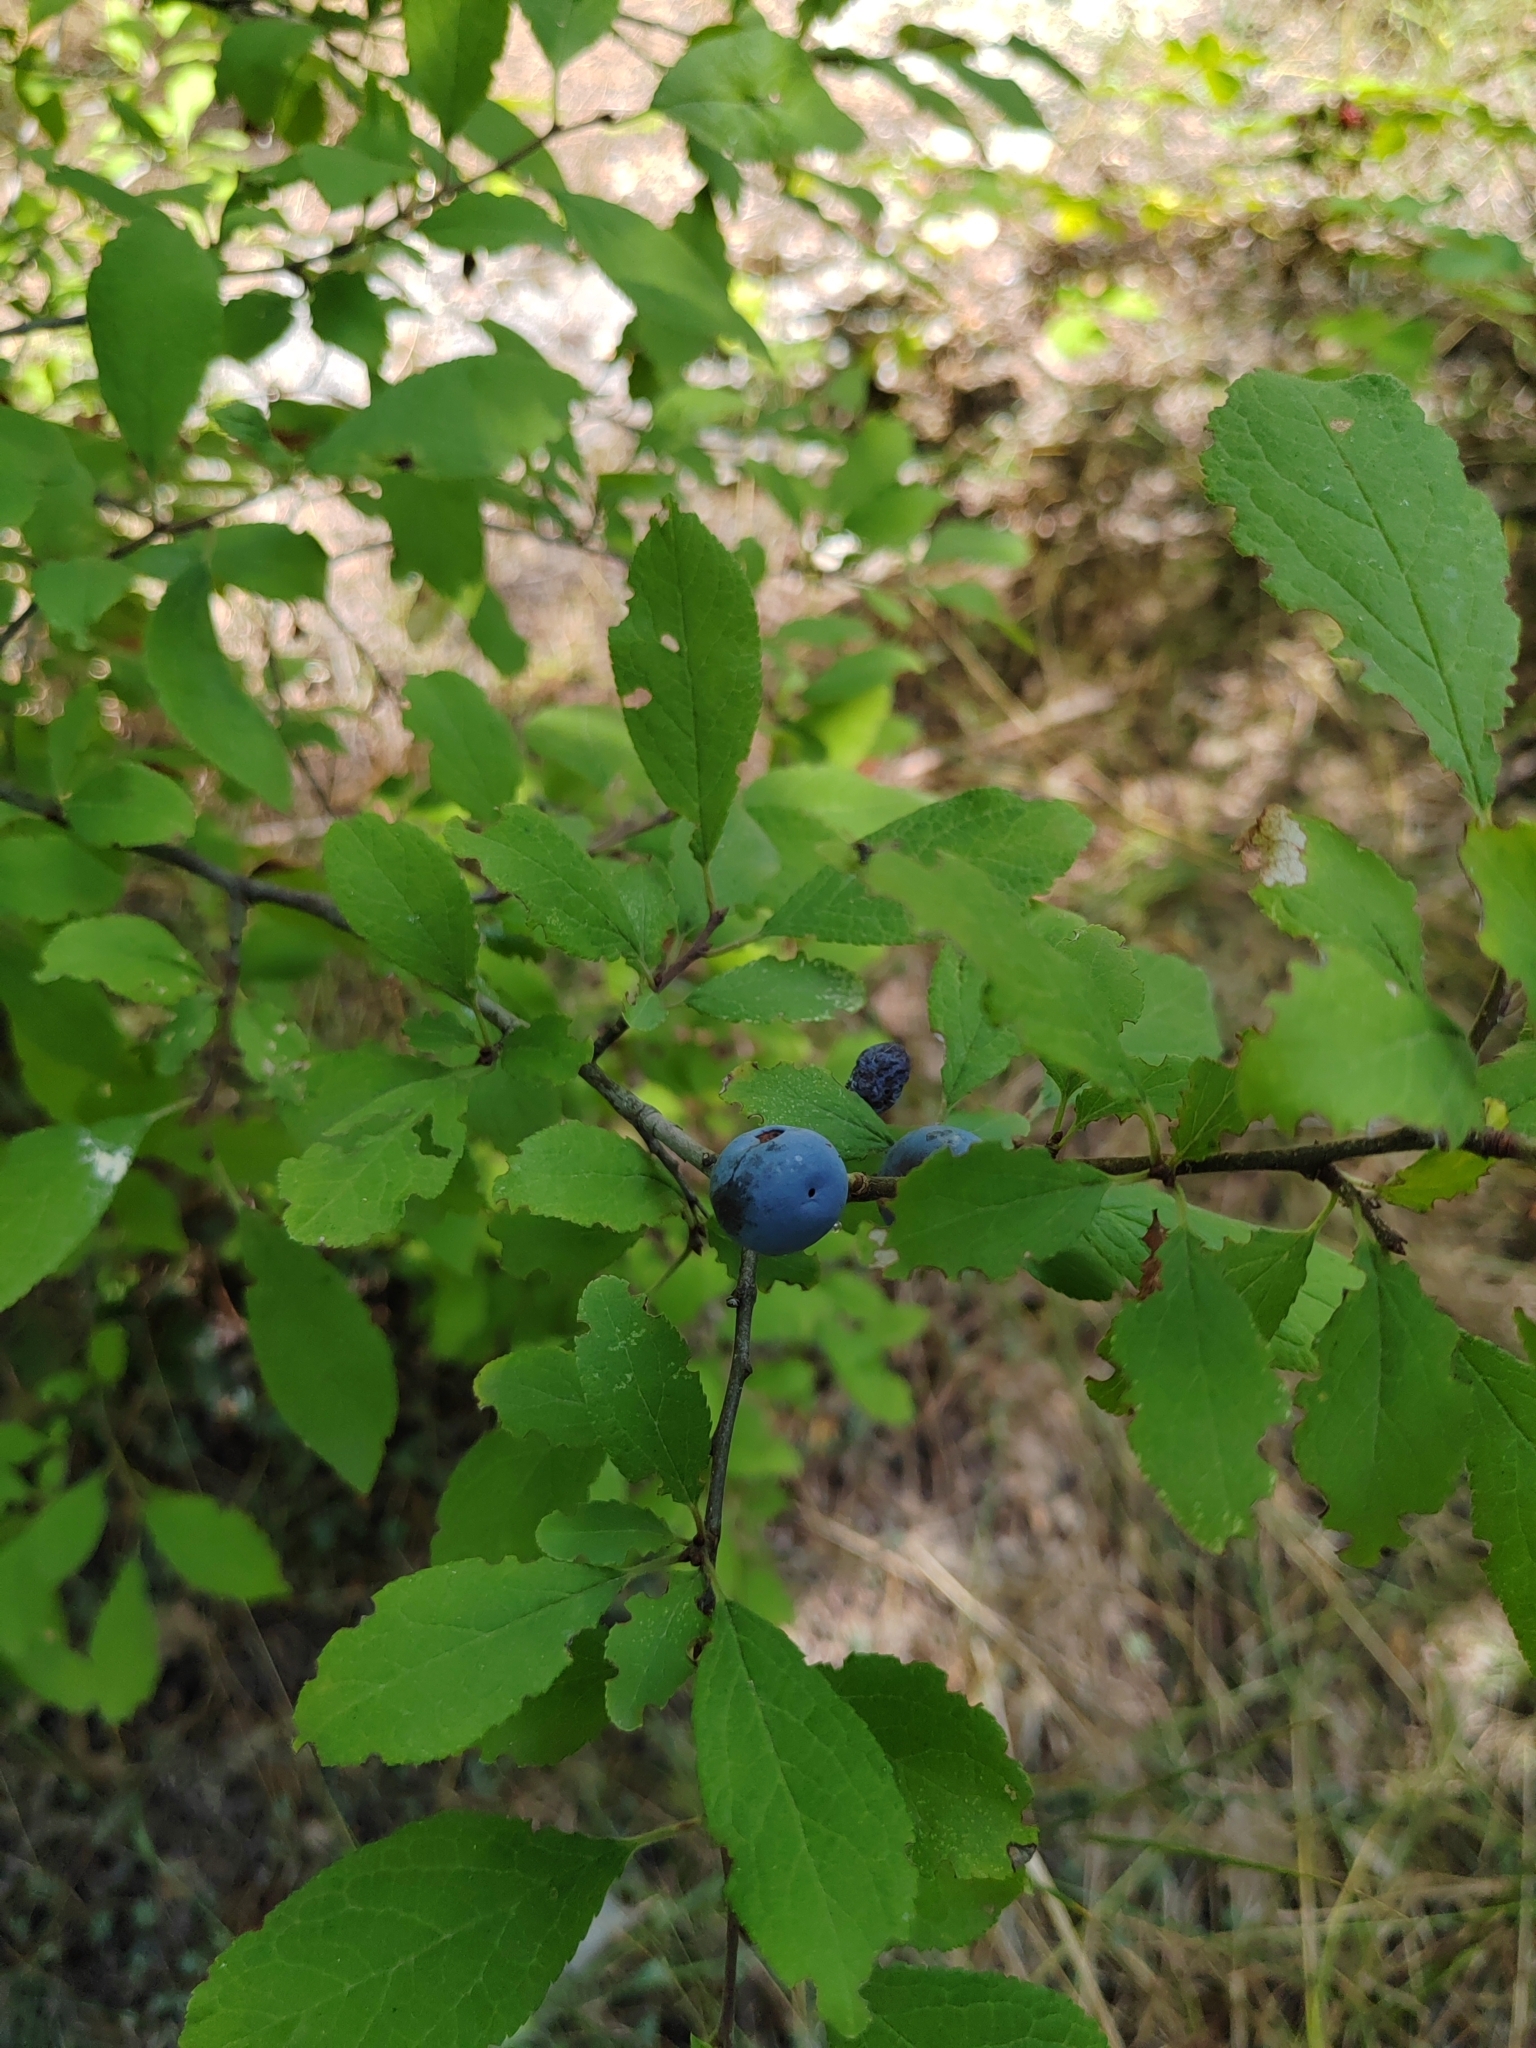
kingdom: Plantae
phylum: Tracheophyta
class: Magnoliopsida
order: Rosales
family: Rosaceae
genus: Prunus
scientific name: Prunus spinosa
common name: Blackthorn
